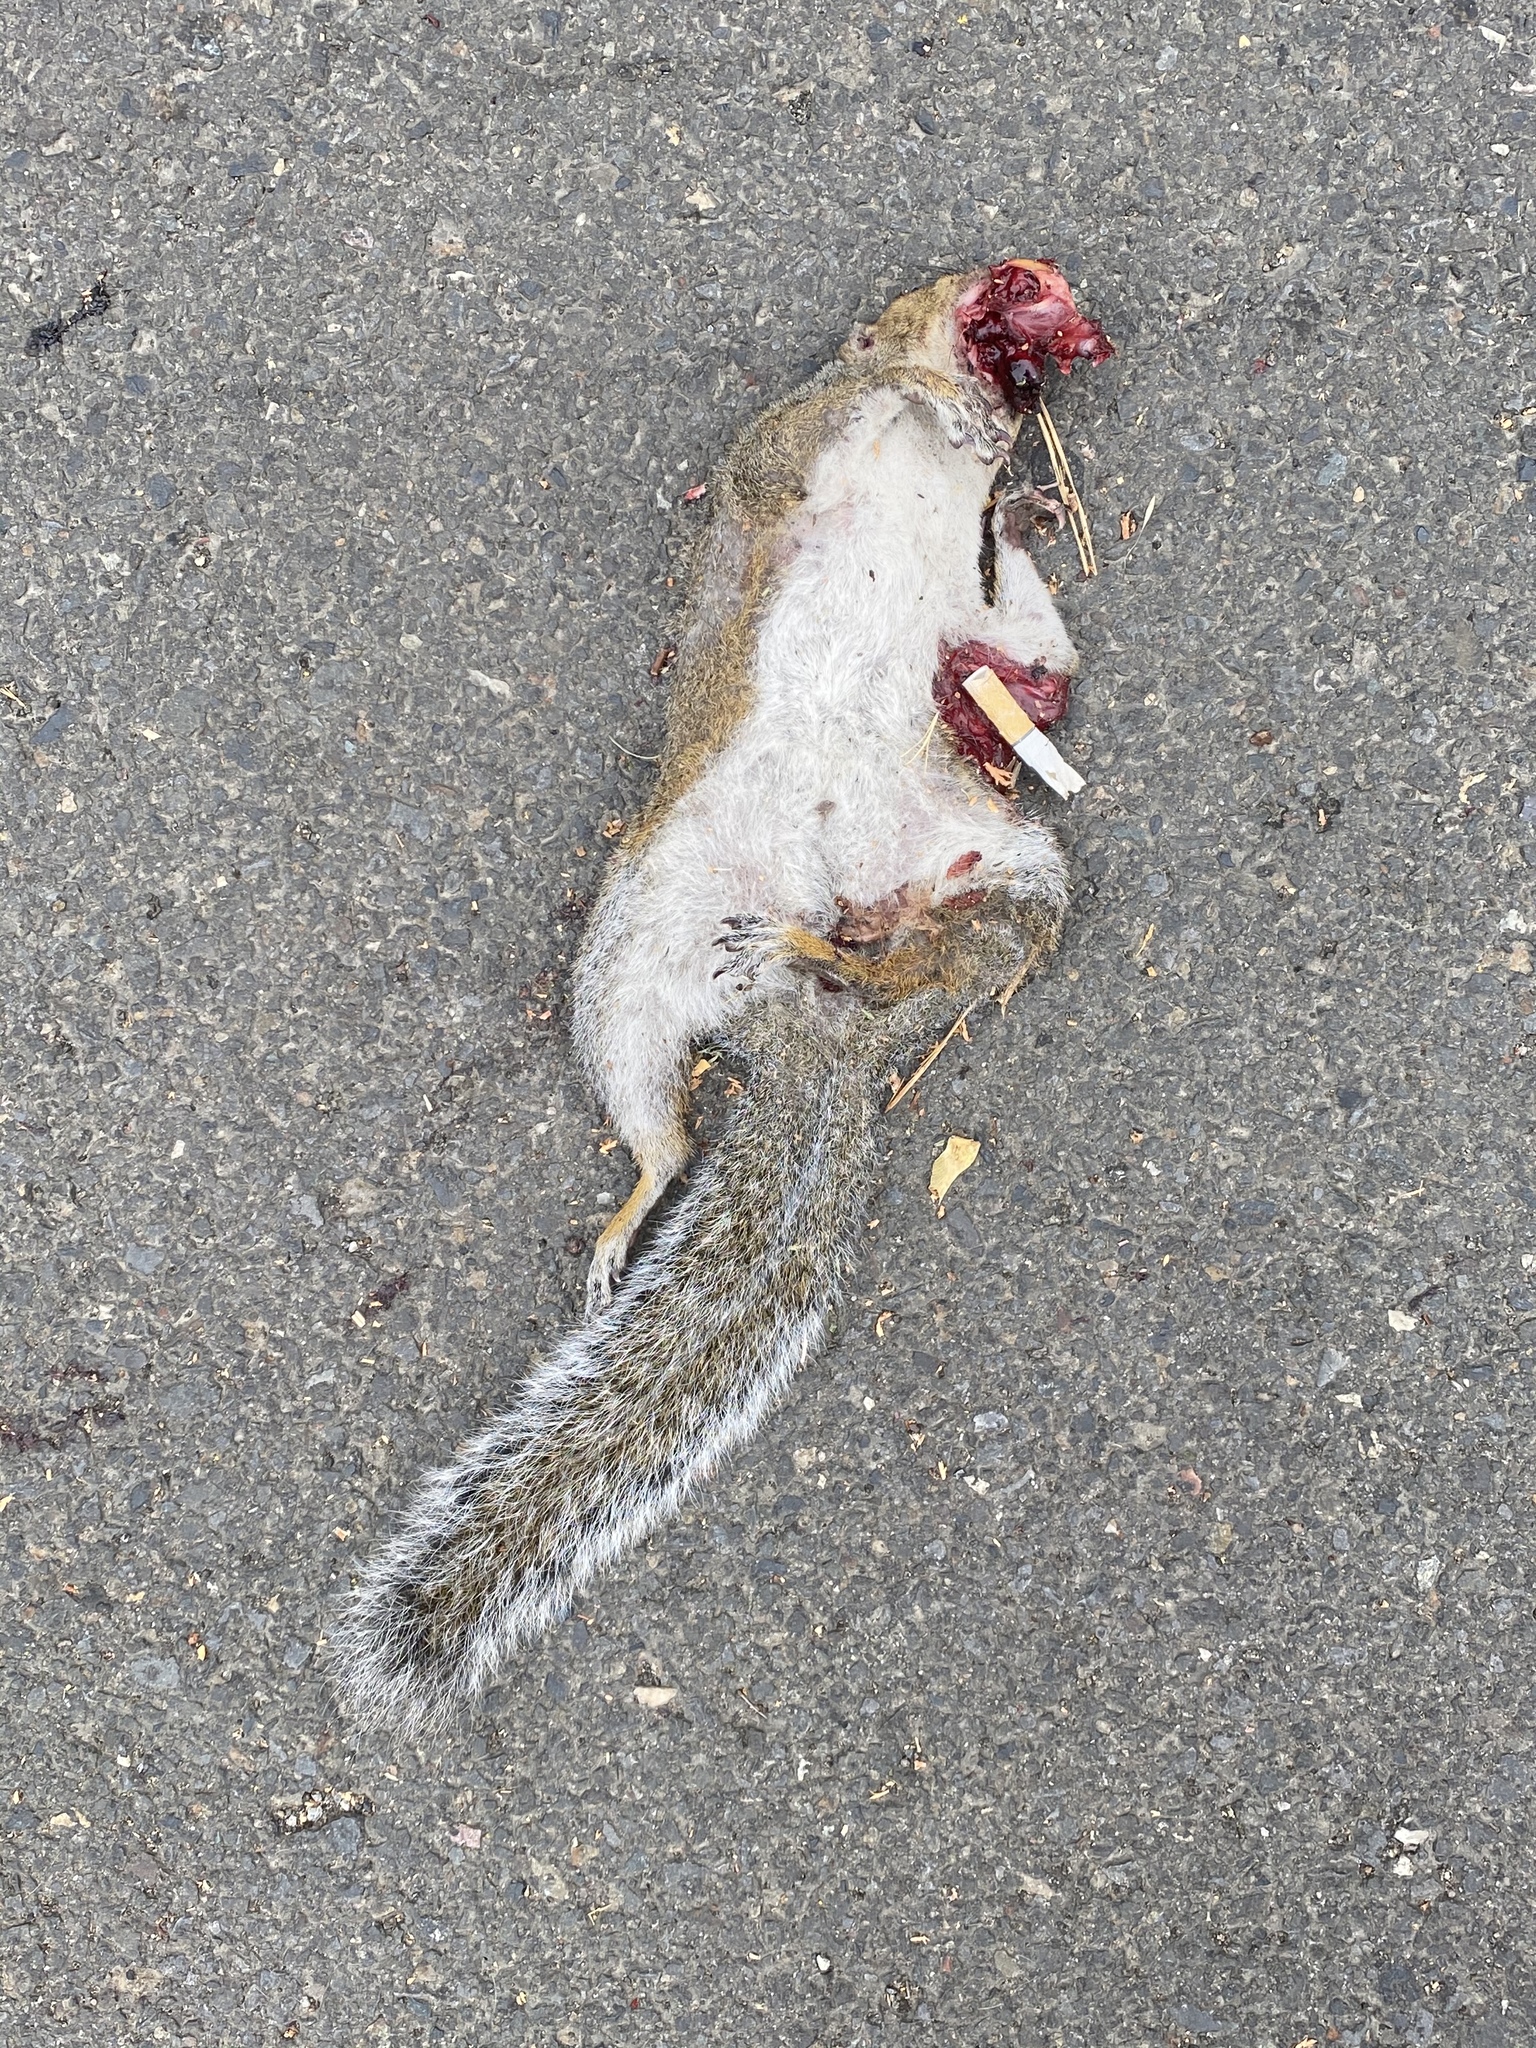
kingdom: Animalia
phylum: Chordata
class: Mammalia
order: Rodentia
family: Sciuridae
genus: Sciurus
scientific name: Sciurus carolinensis
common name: Eastern gray squirrel
